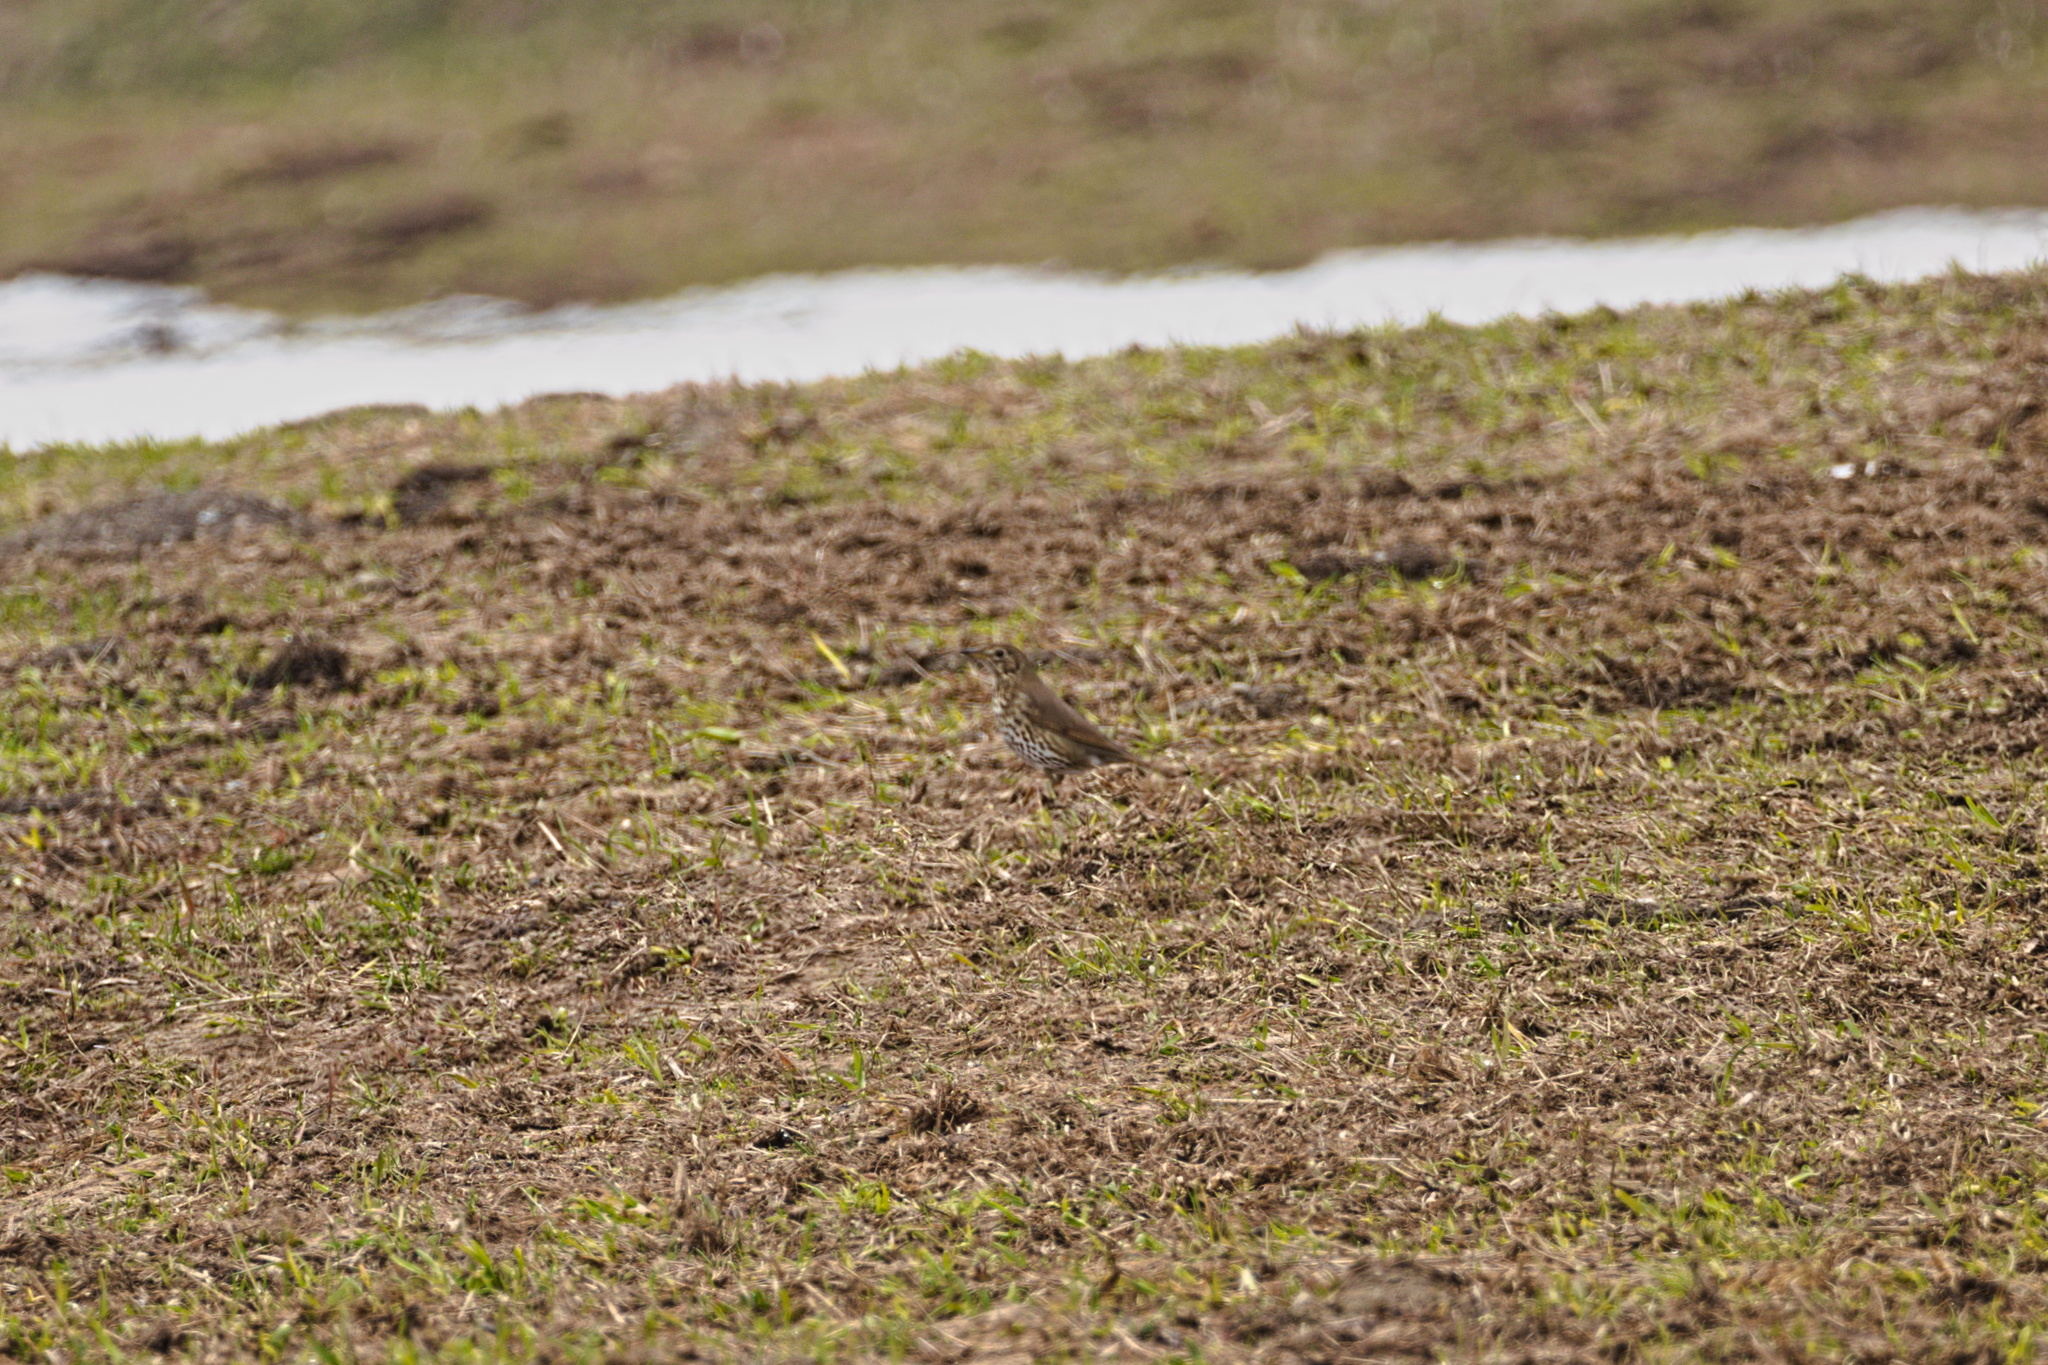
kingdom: Animalia
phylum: Chordata
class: Aves
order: Passeriformes
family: Turdidae
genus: Turdus
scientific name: Turdus philomelos
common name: Song thrush
